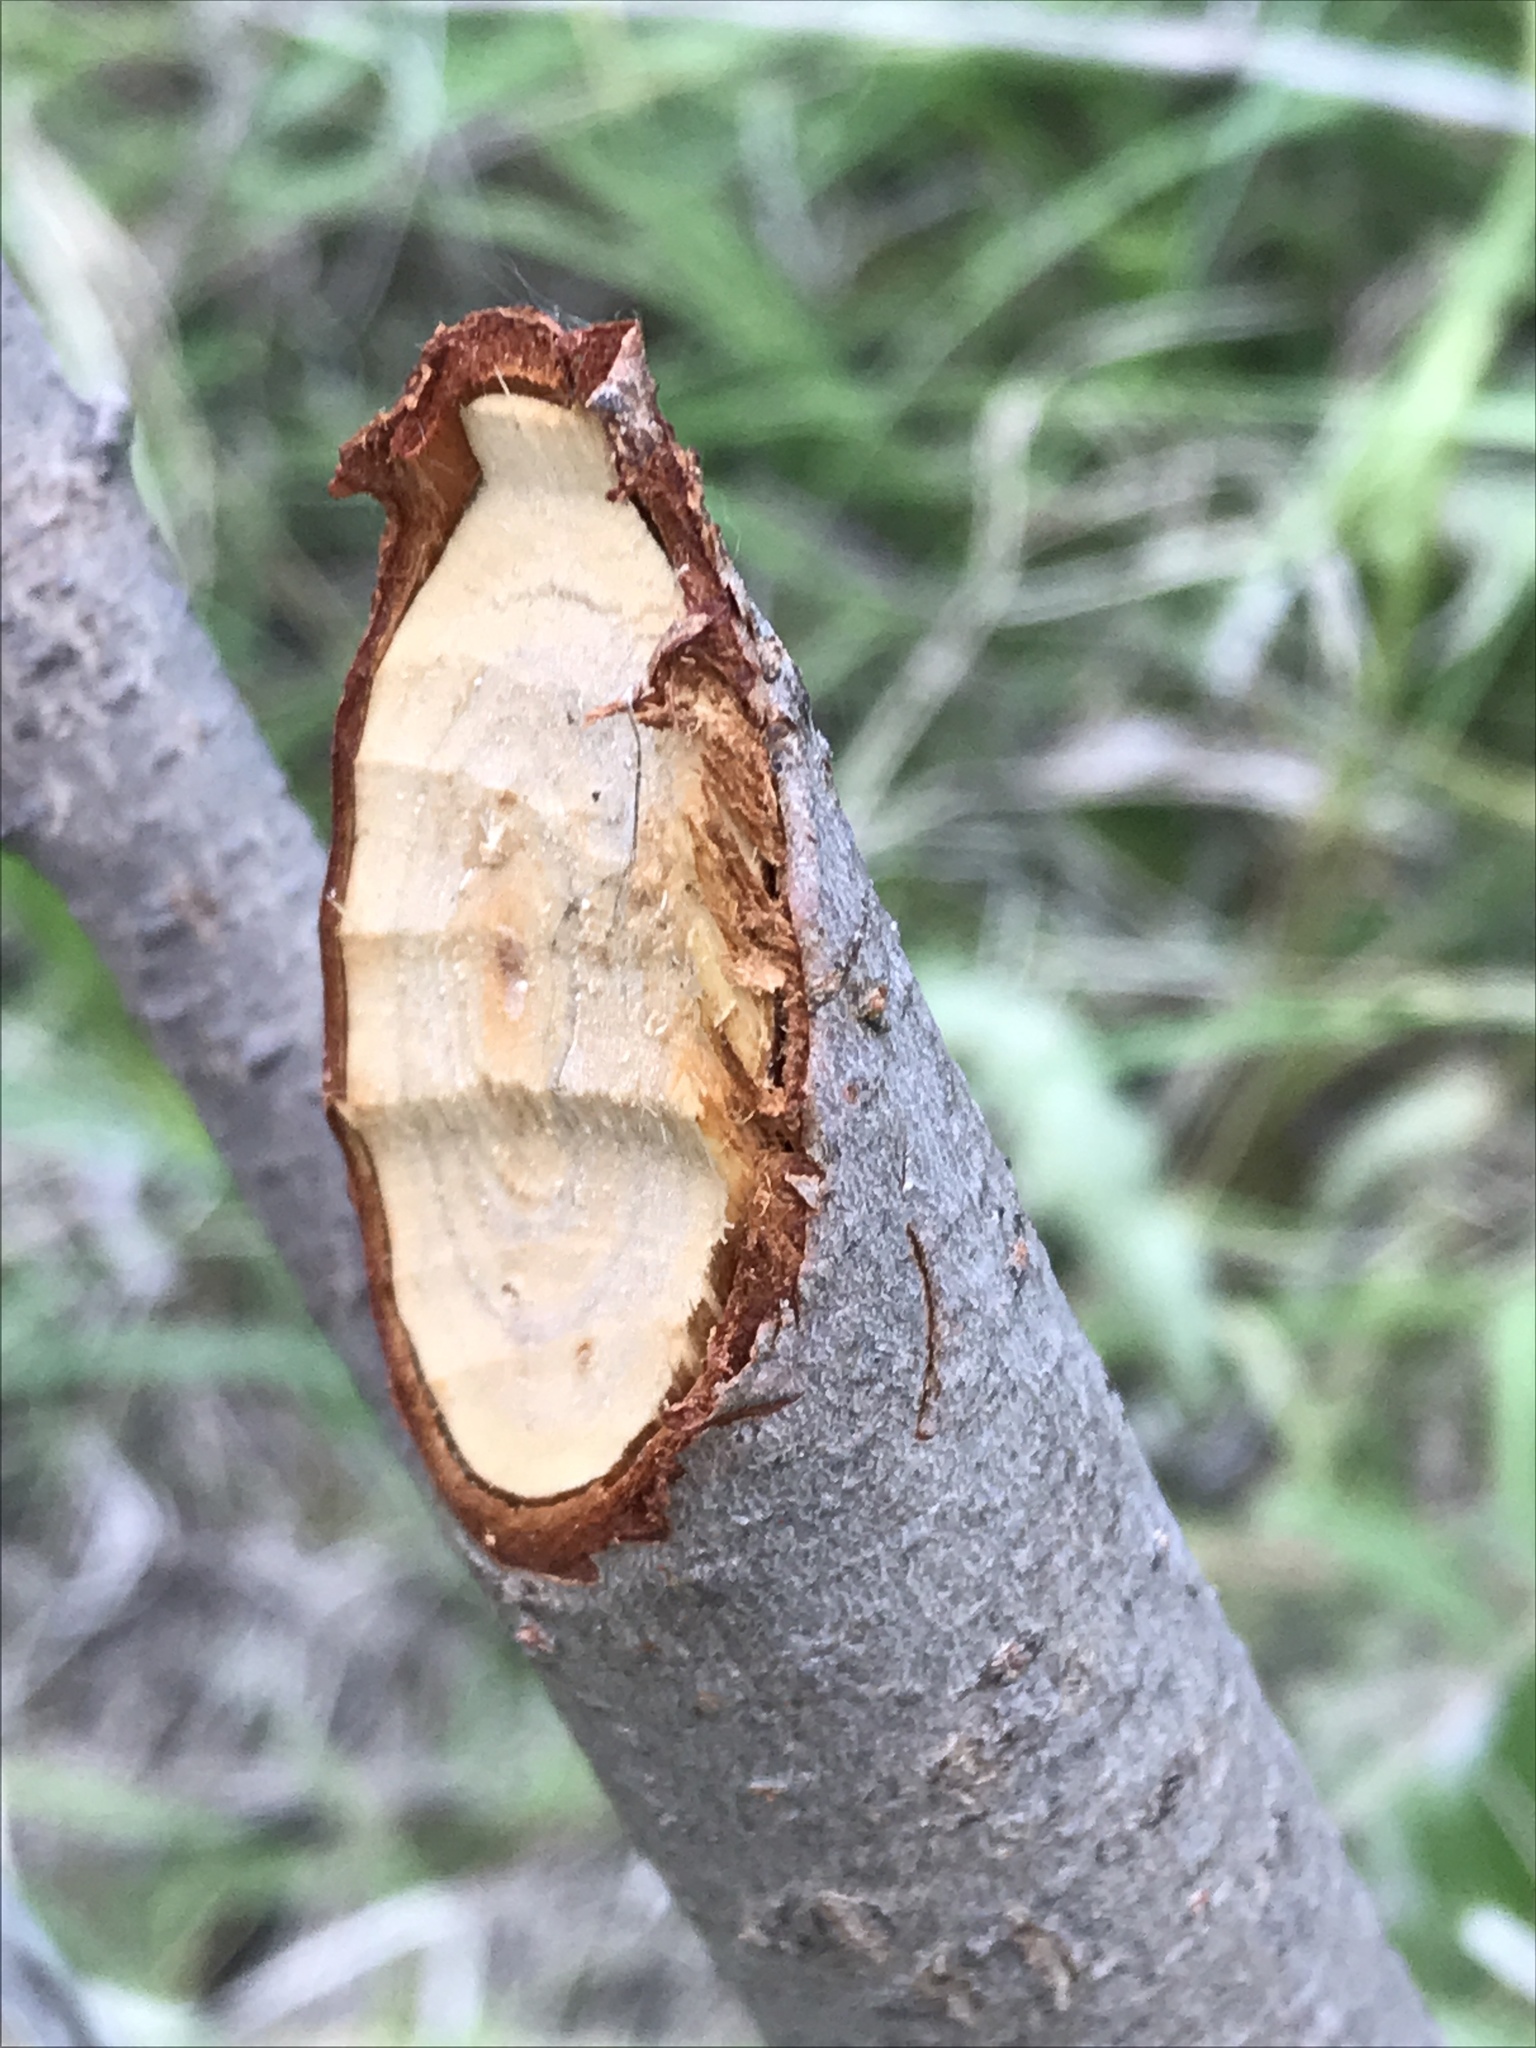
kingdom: Animalia
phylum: Chordata
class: Mammalia
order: Rodentia
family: Castoridae
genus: Castor
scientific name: Castor canadensis
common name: American beaver
